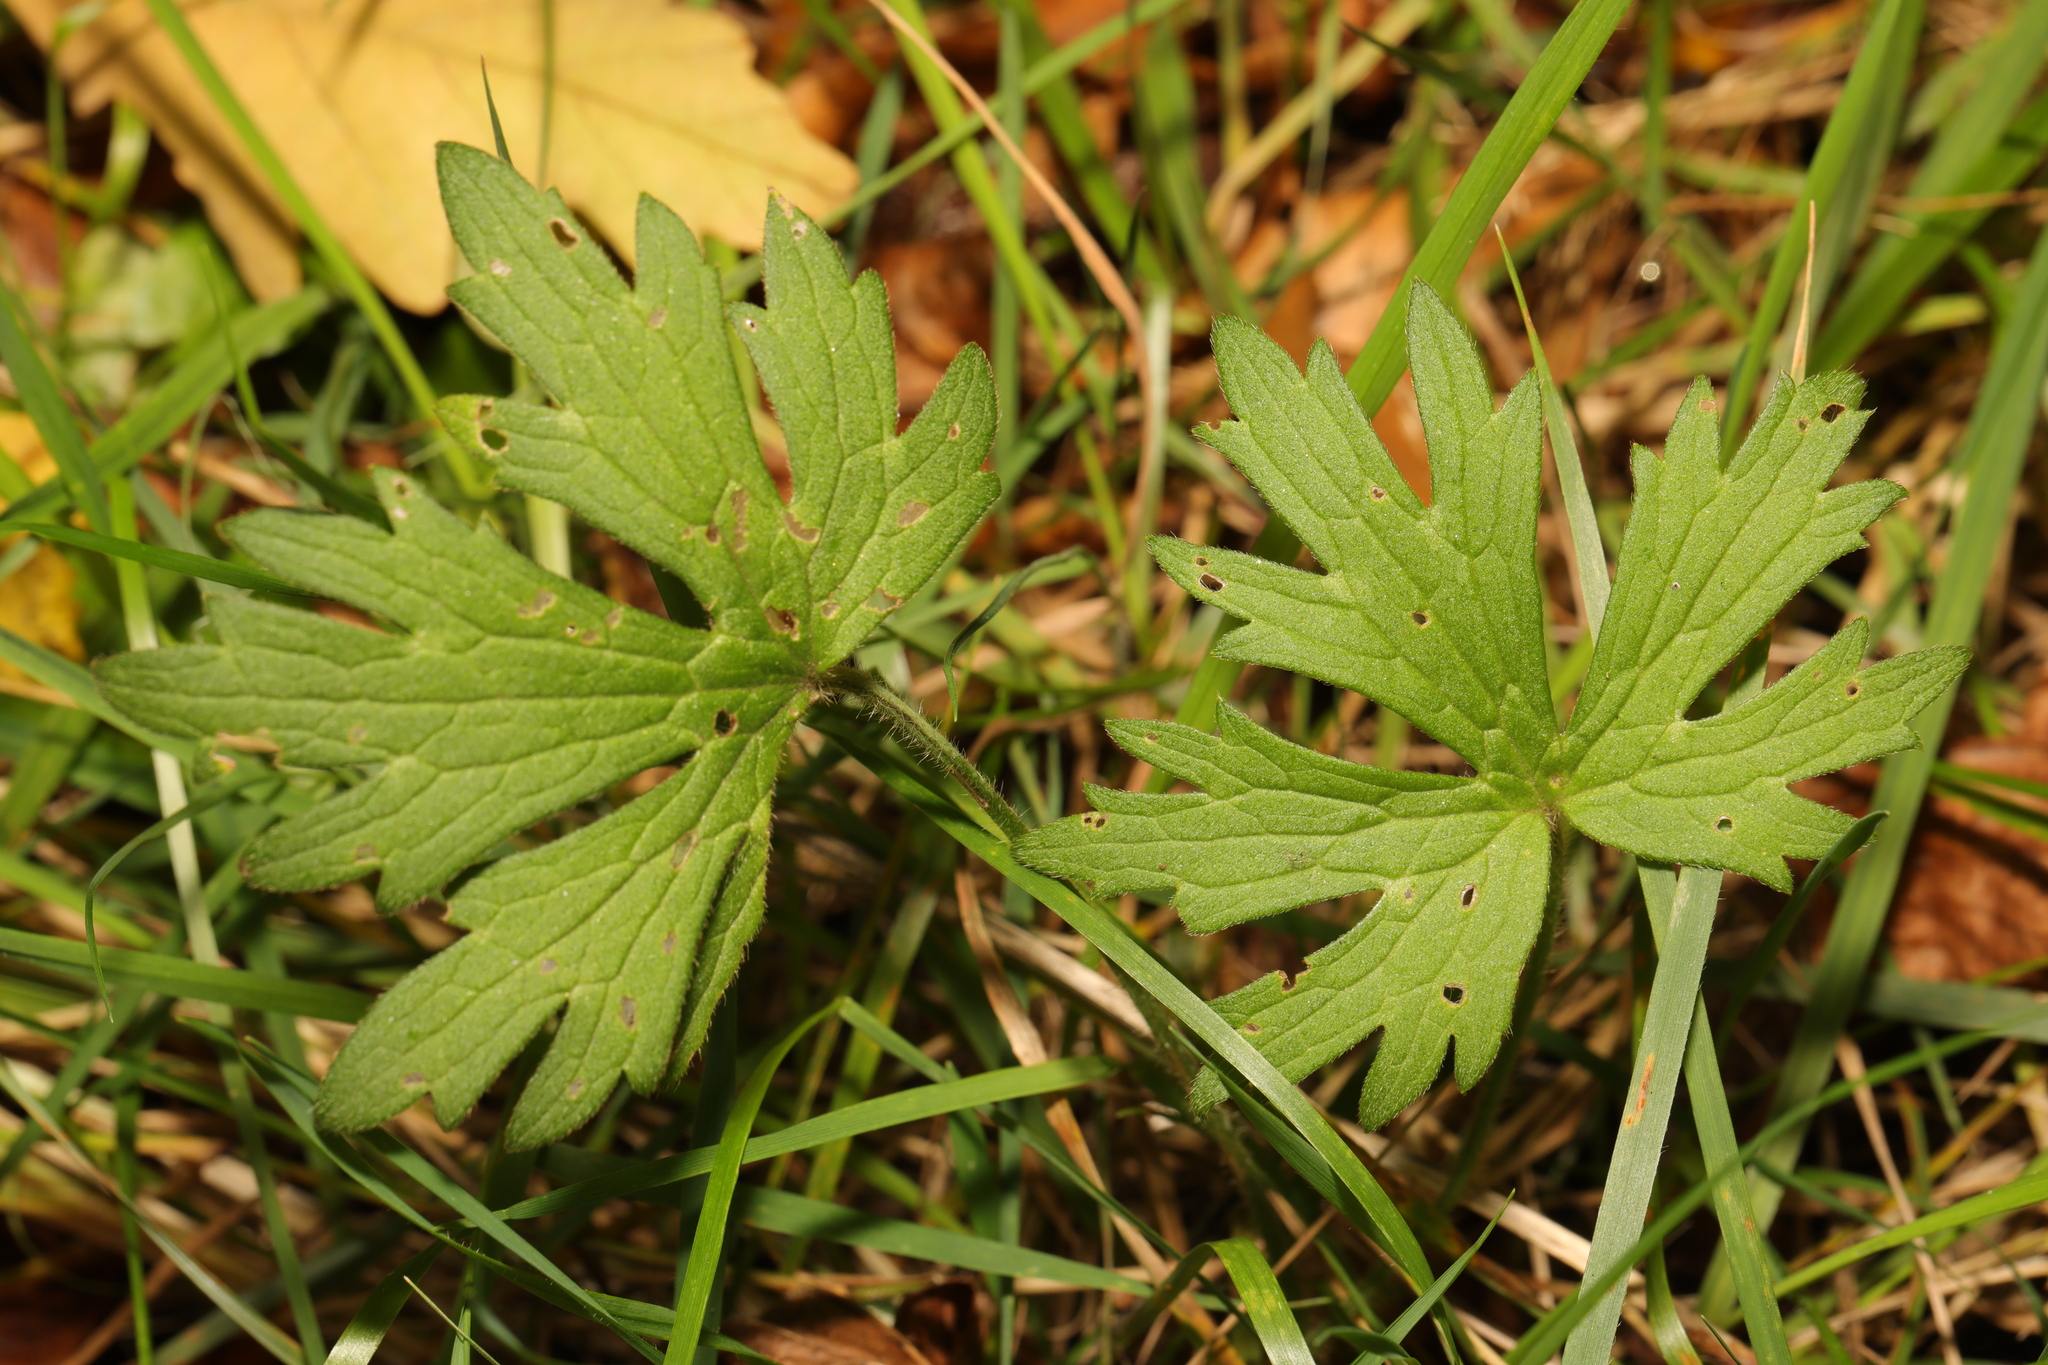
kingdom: Plantae
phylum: Tracheophyta
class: Magnoliopsida
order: Ranunculales
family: Ranunculaceae
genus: Ranunculus
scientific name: Ranunculus acris
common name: Meadow buttercup
